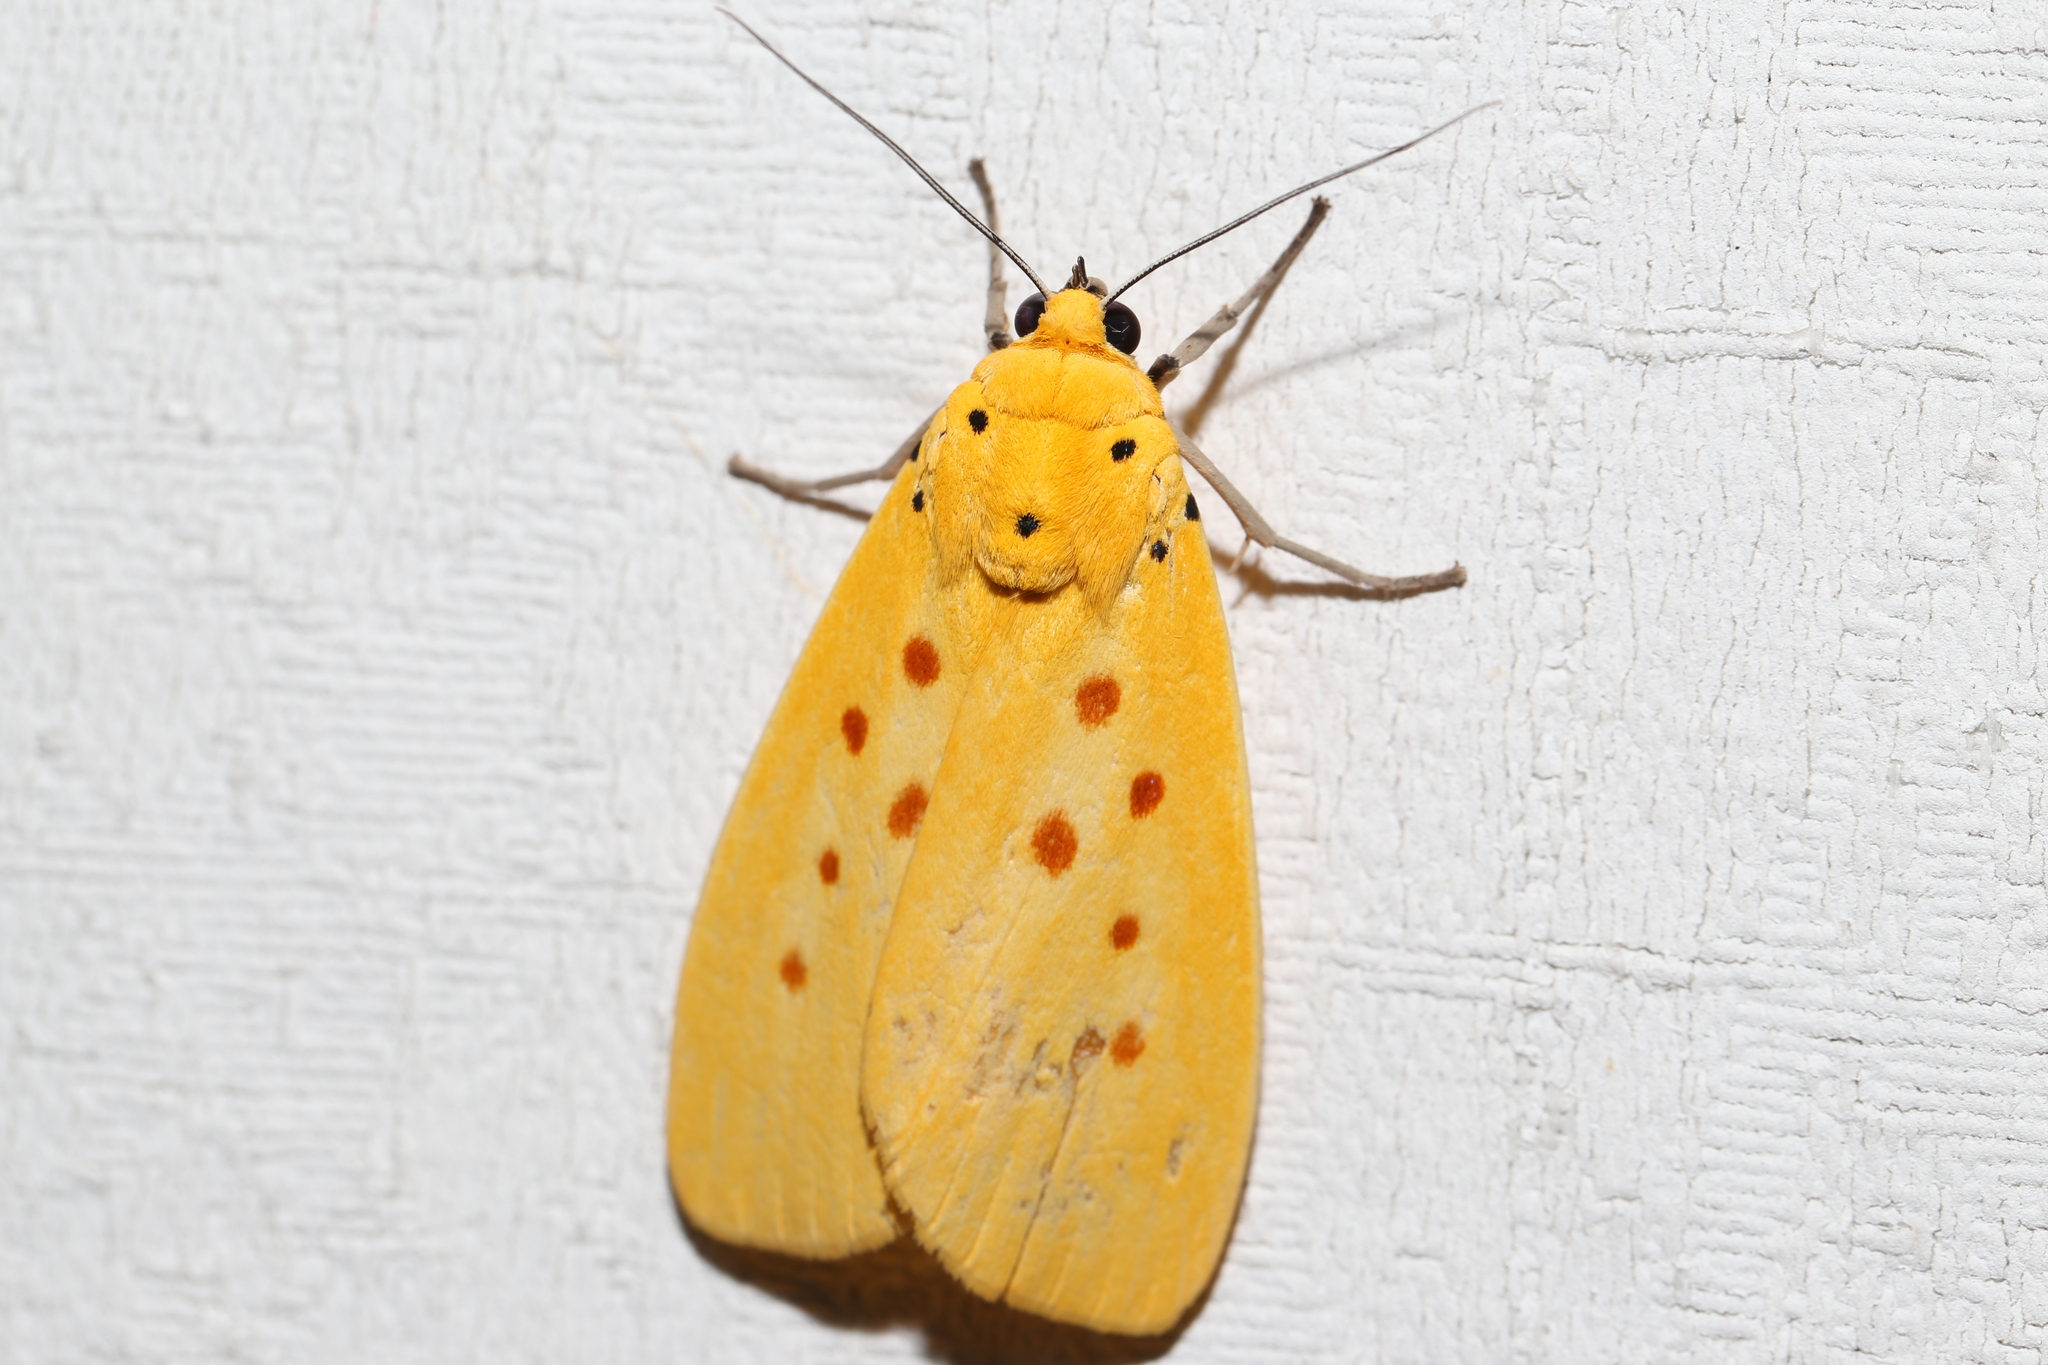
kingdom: Animalia
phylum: Arthropoda
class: Insecta
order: Lepidoptera
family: Noctuidae
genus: Agape
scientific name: Agape chloropyga
